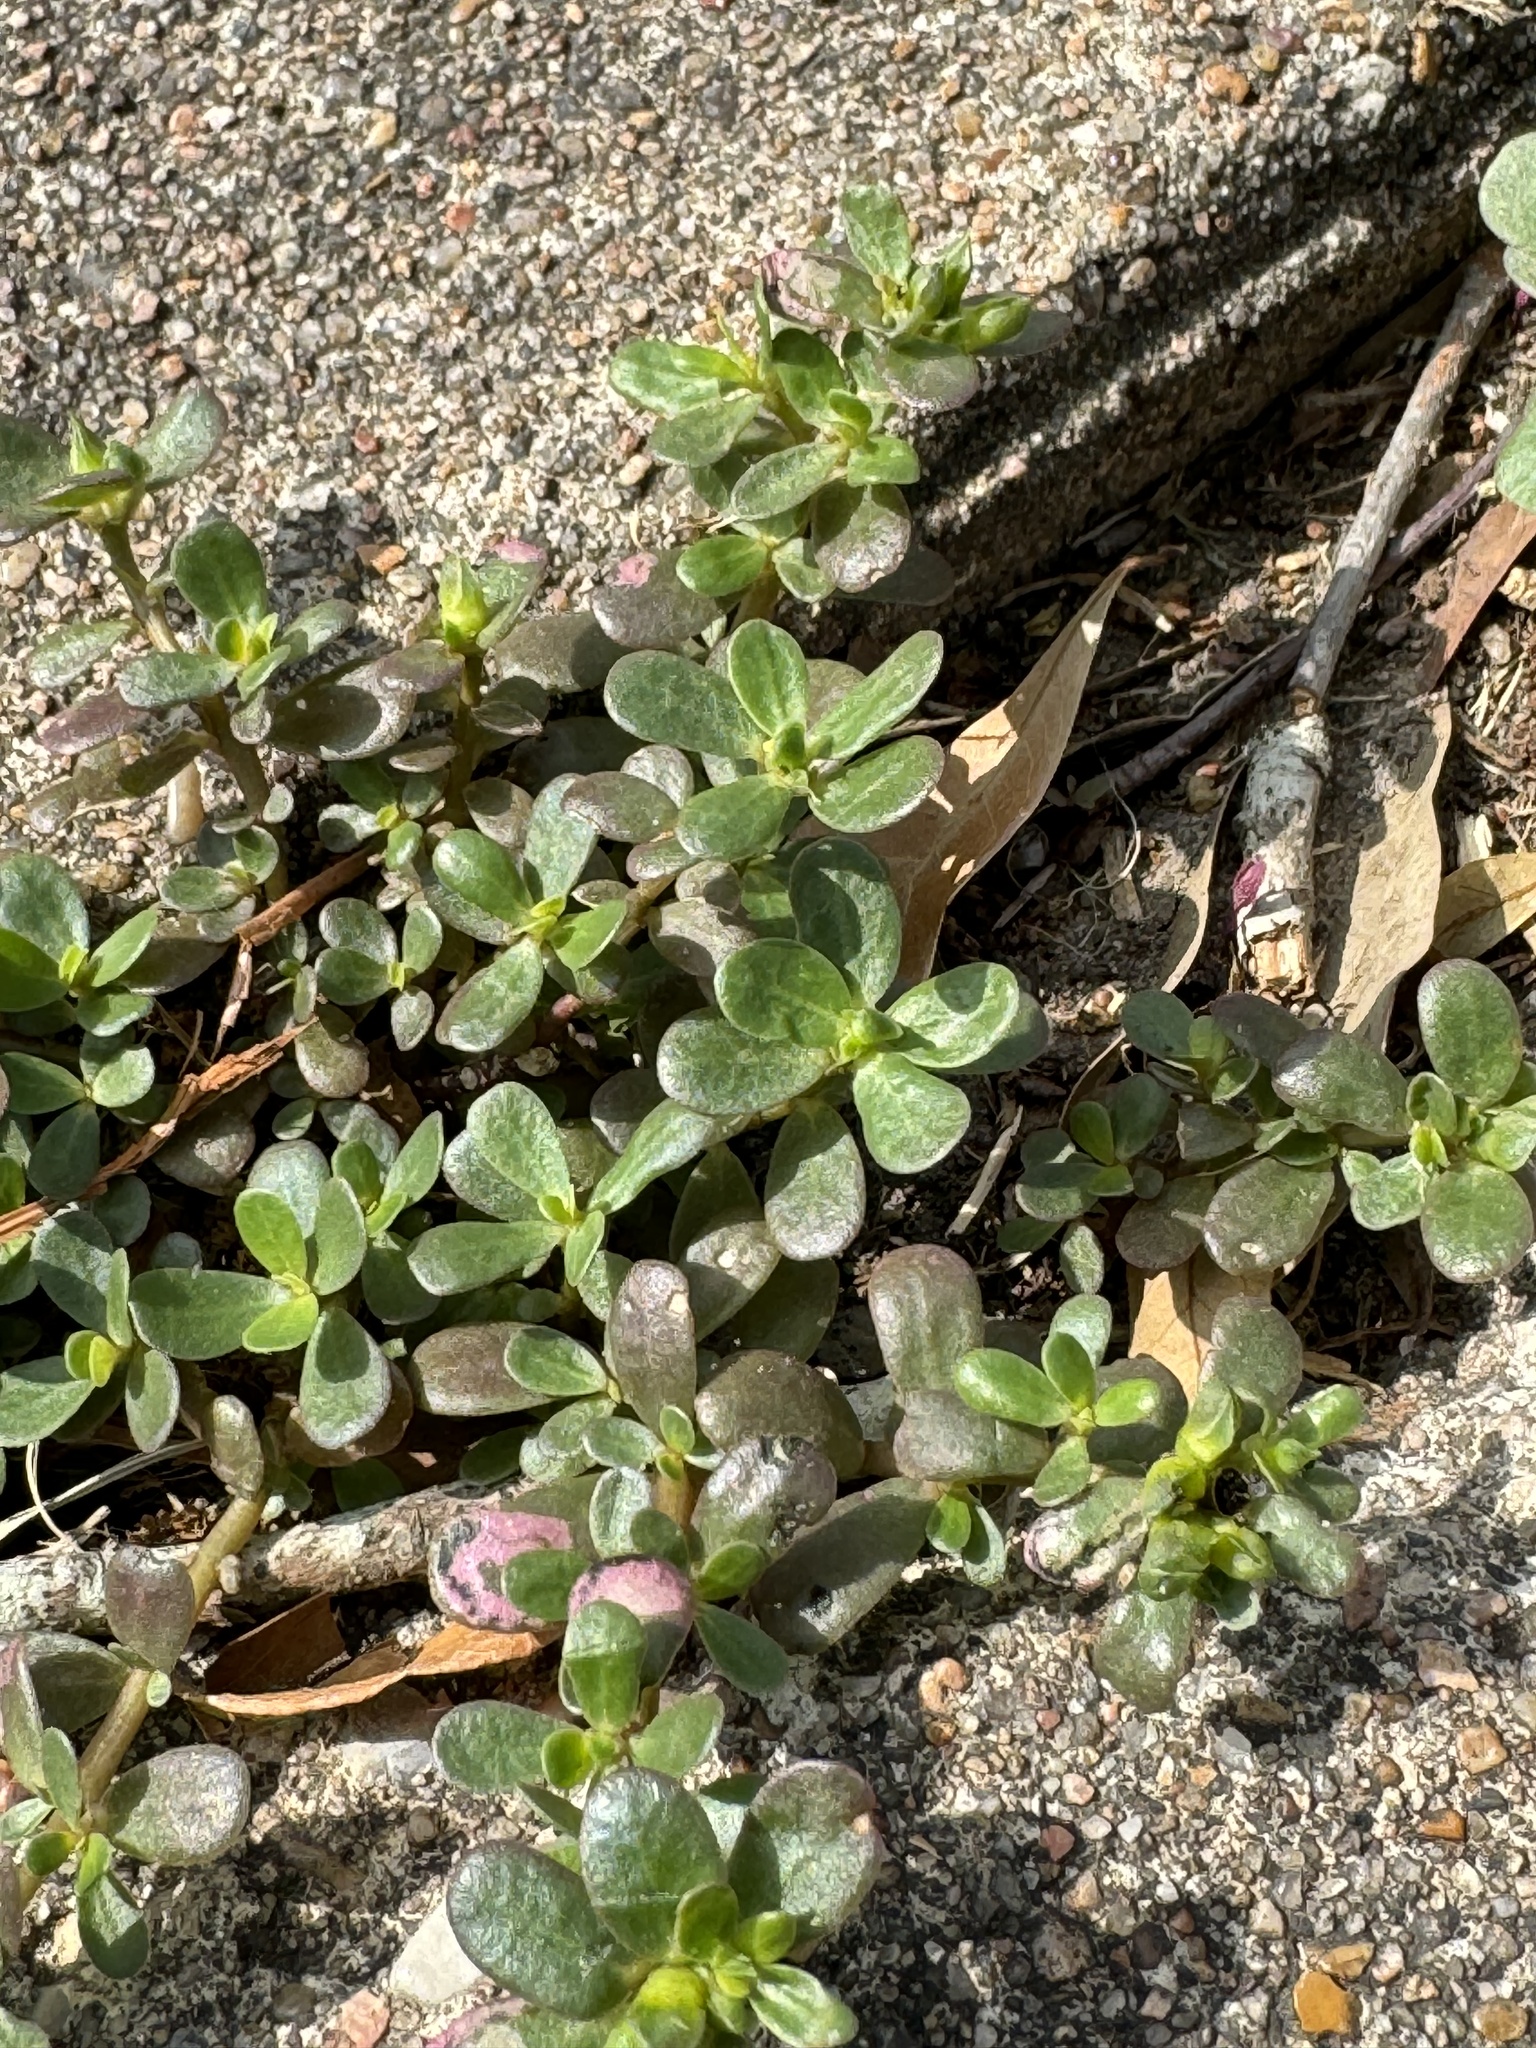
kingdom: Plantae
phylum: Tracheophyta
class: Magnoliopsida
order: Caryophyllales
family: Portulacaceae
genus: Portulaca
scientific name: Portulaca oleracea
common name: Common purslane
